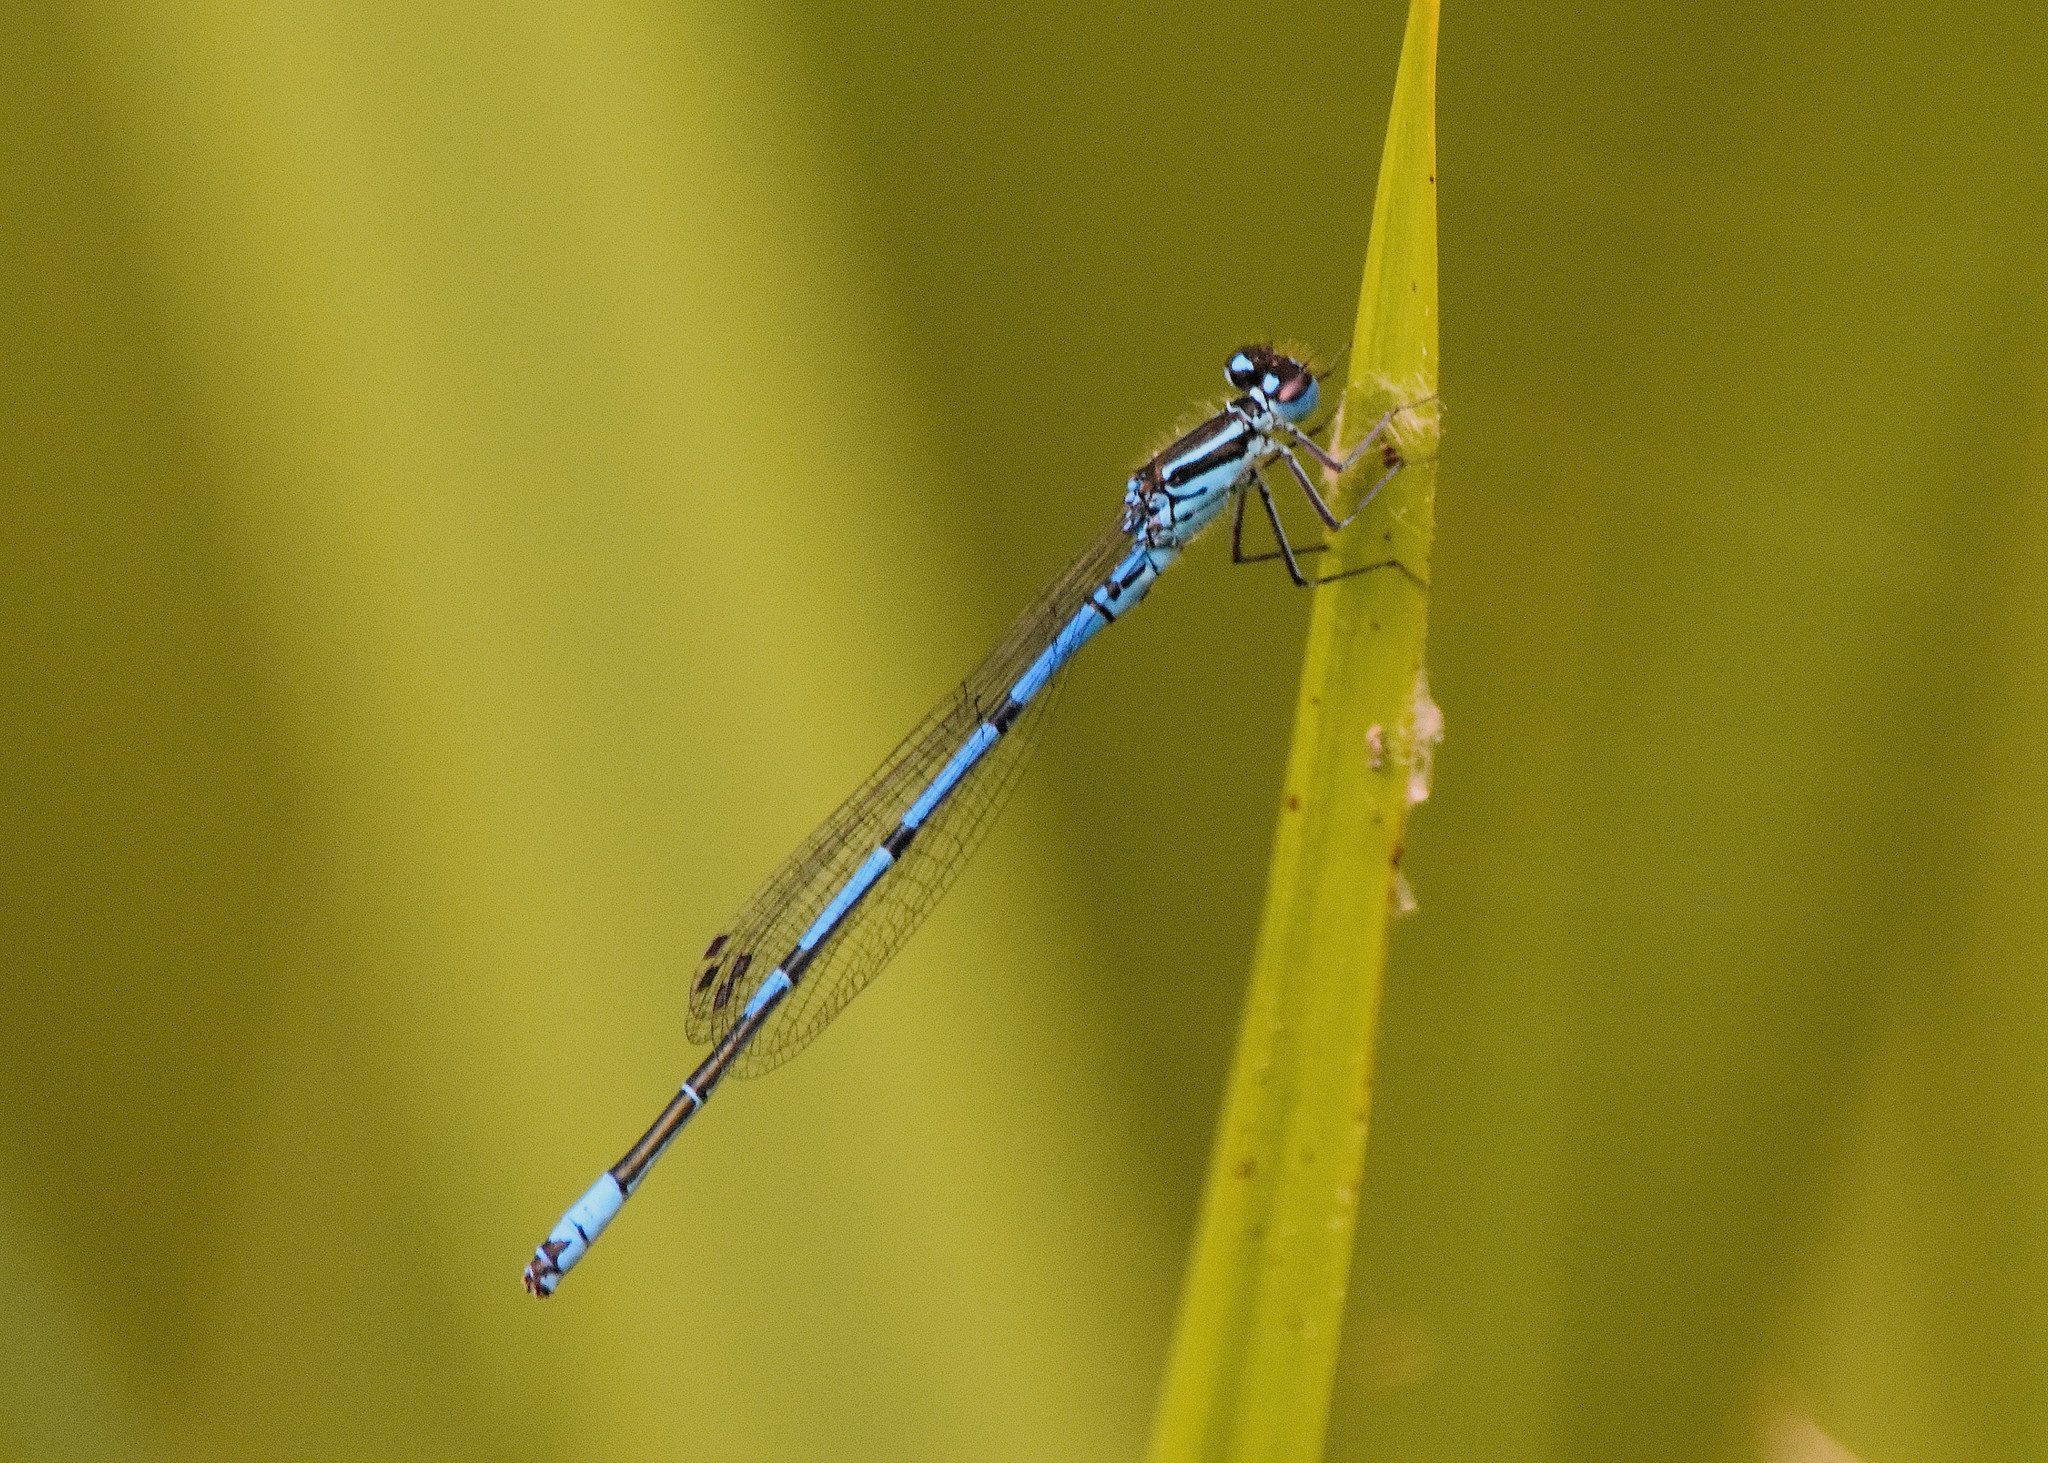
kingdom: Animalia
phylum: Arthropoda
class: Insecta
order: Odonata
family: Coenagrionidae
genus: Coenagrion
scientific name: Coenagrion puella
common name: Azure damselfly
